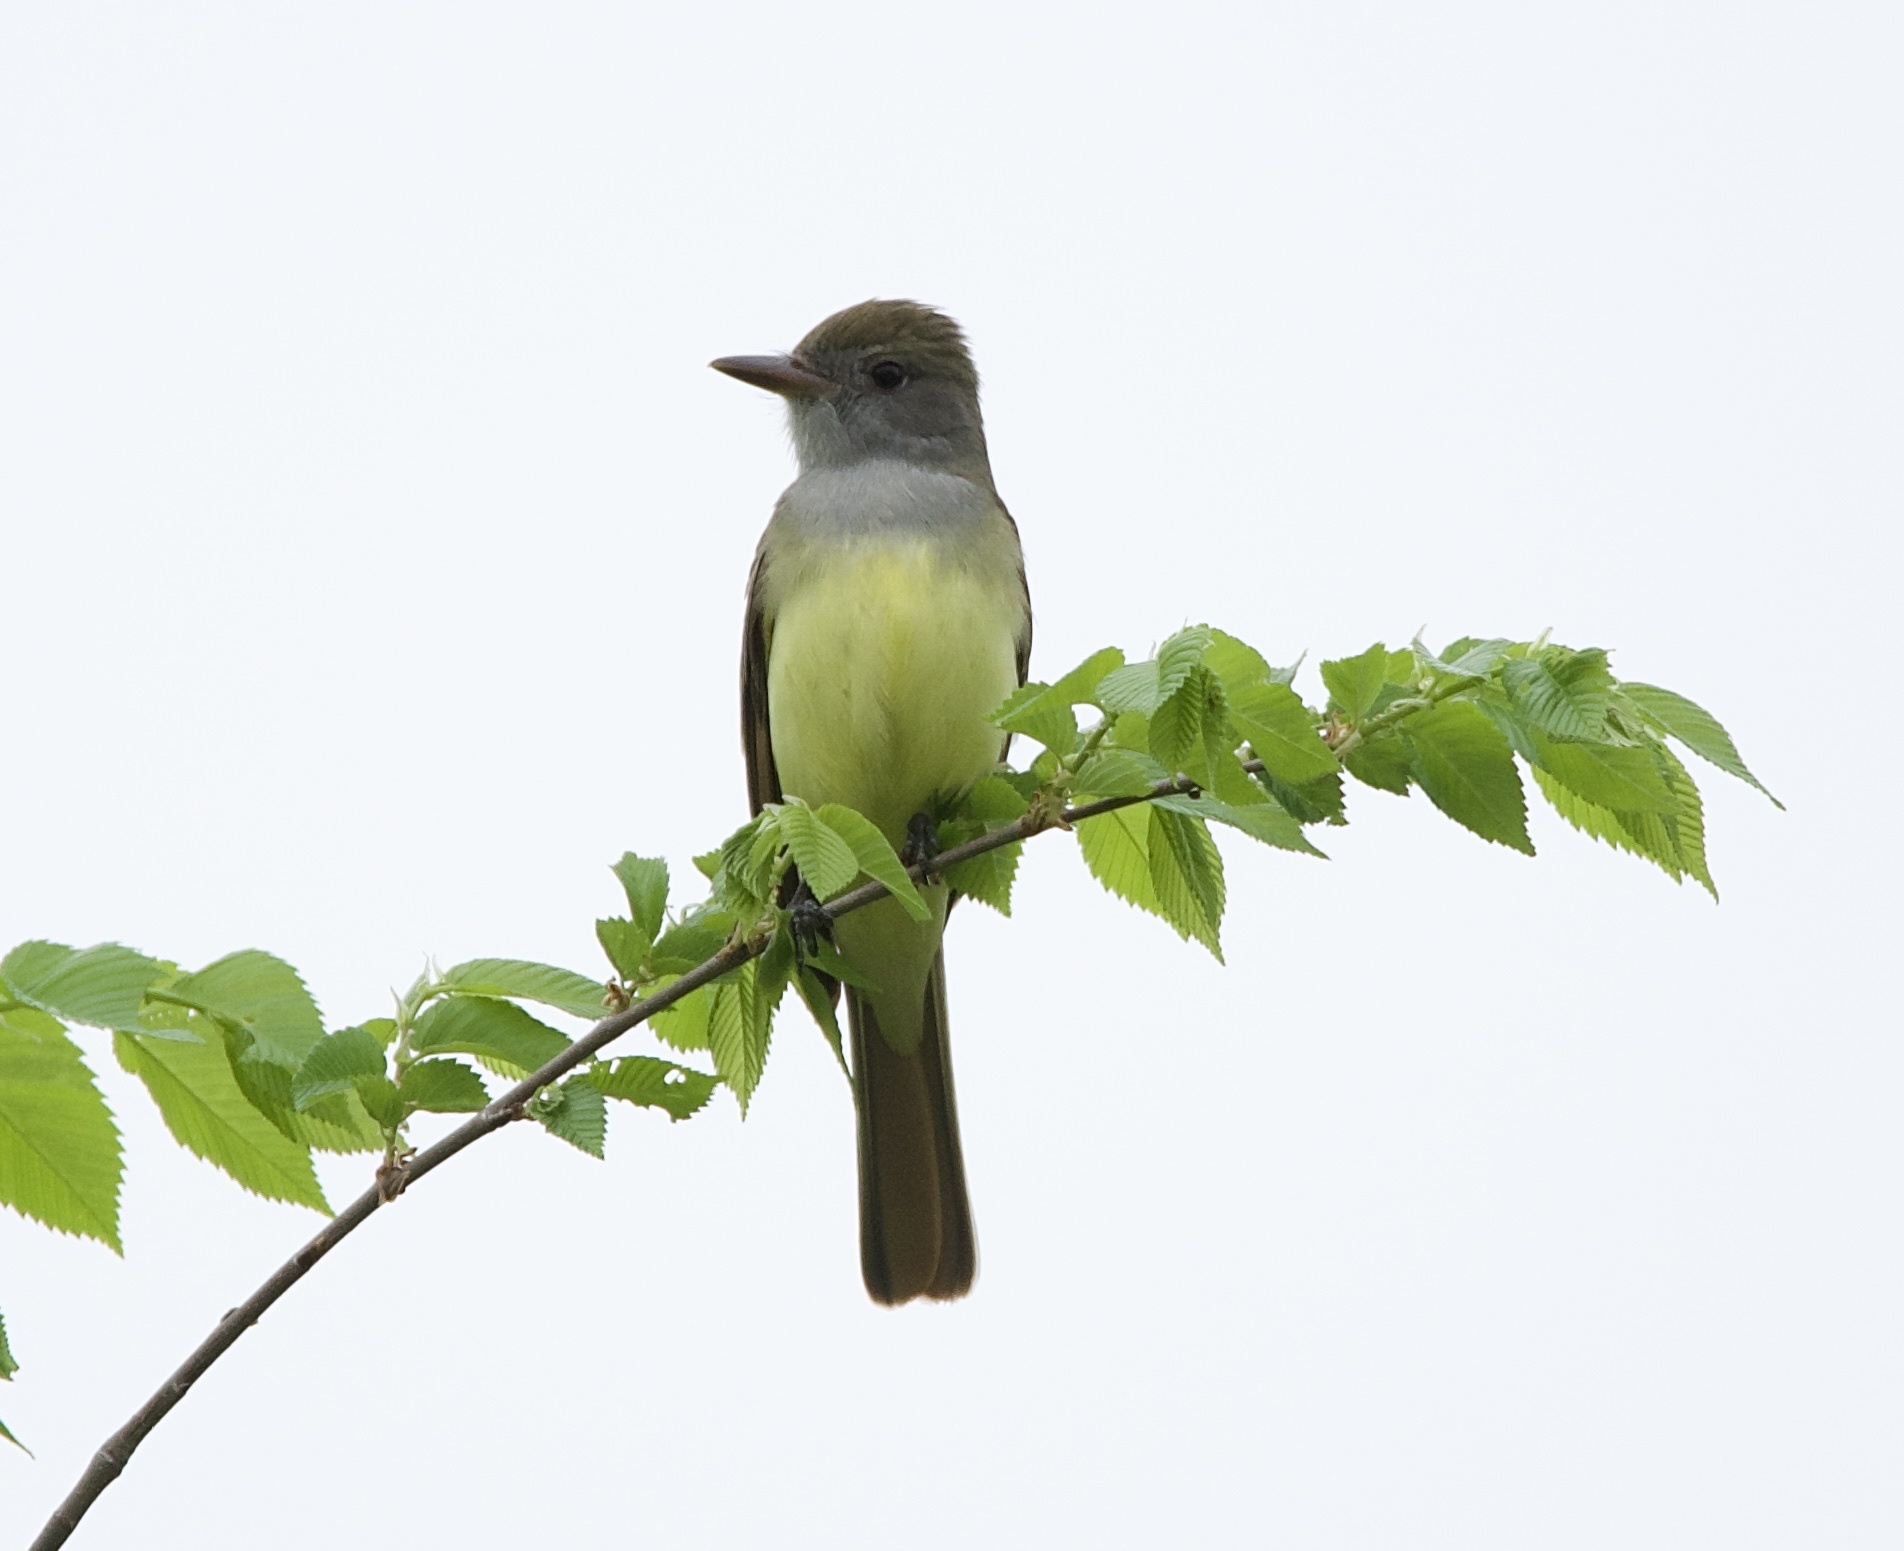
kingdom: Animalia
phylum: Chordata
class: Aves
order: Passeriformes
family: Tyrannidae
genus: Myiarchus
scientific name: Myiarchus crinitus
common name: Great crested flycatcher
